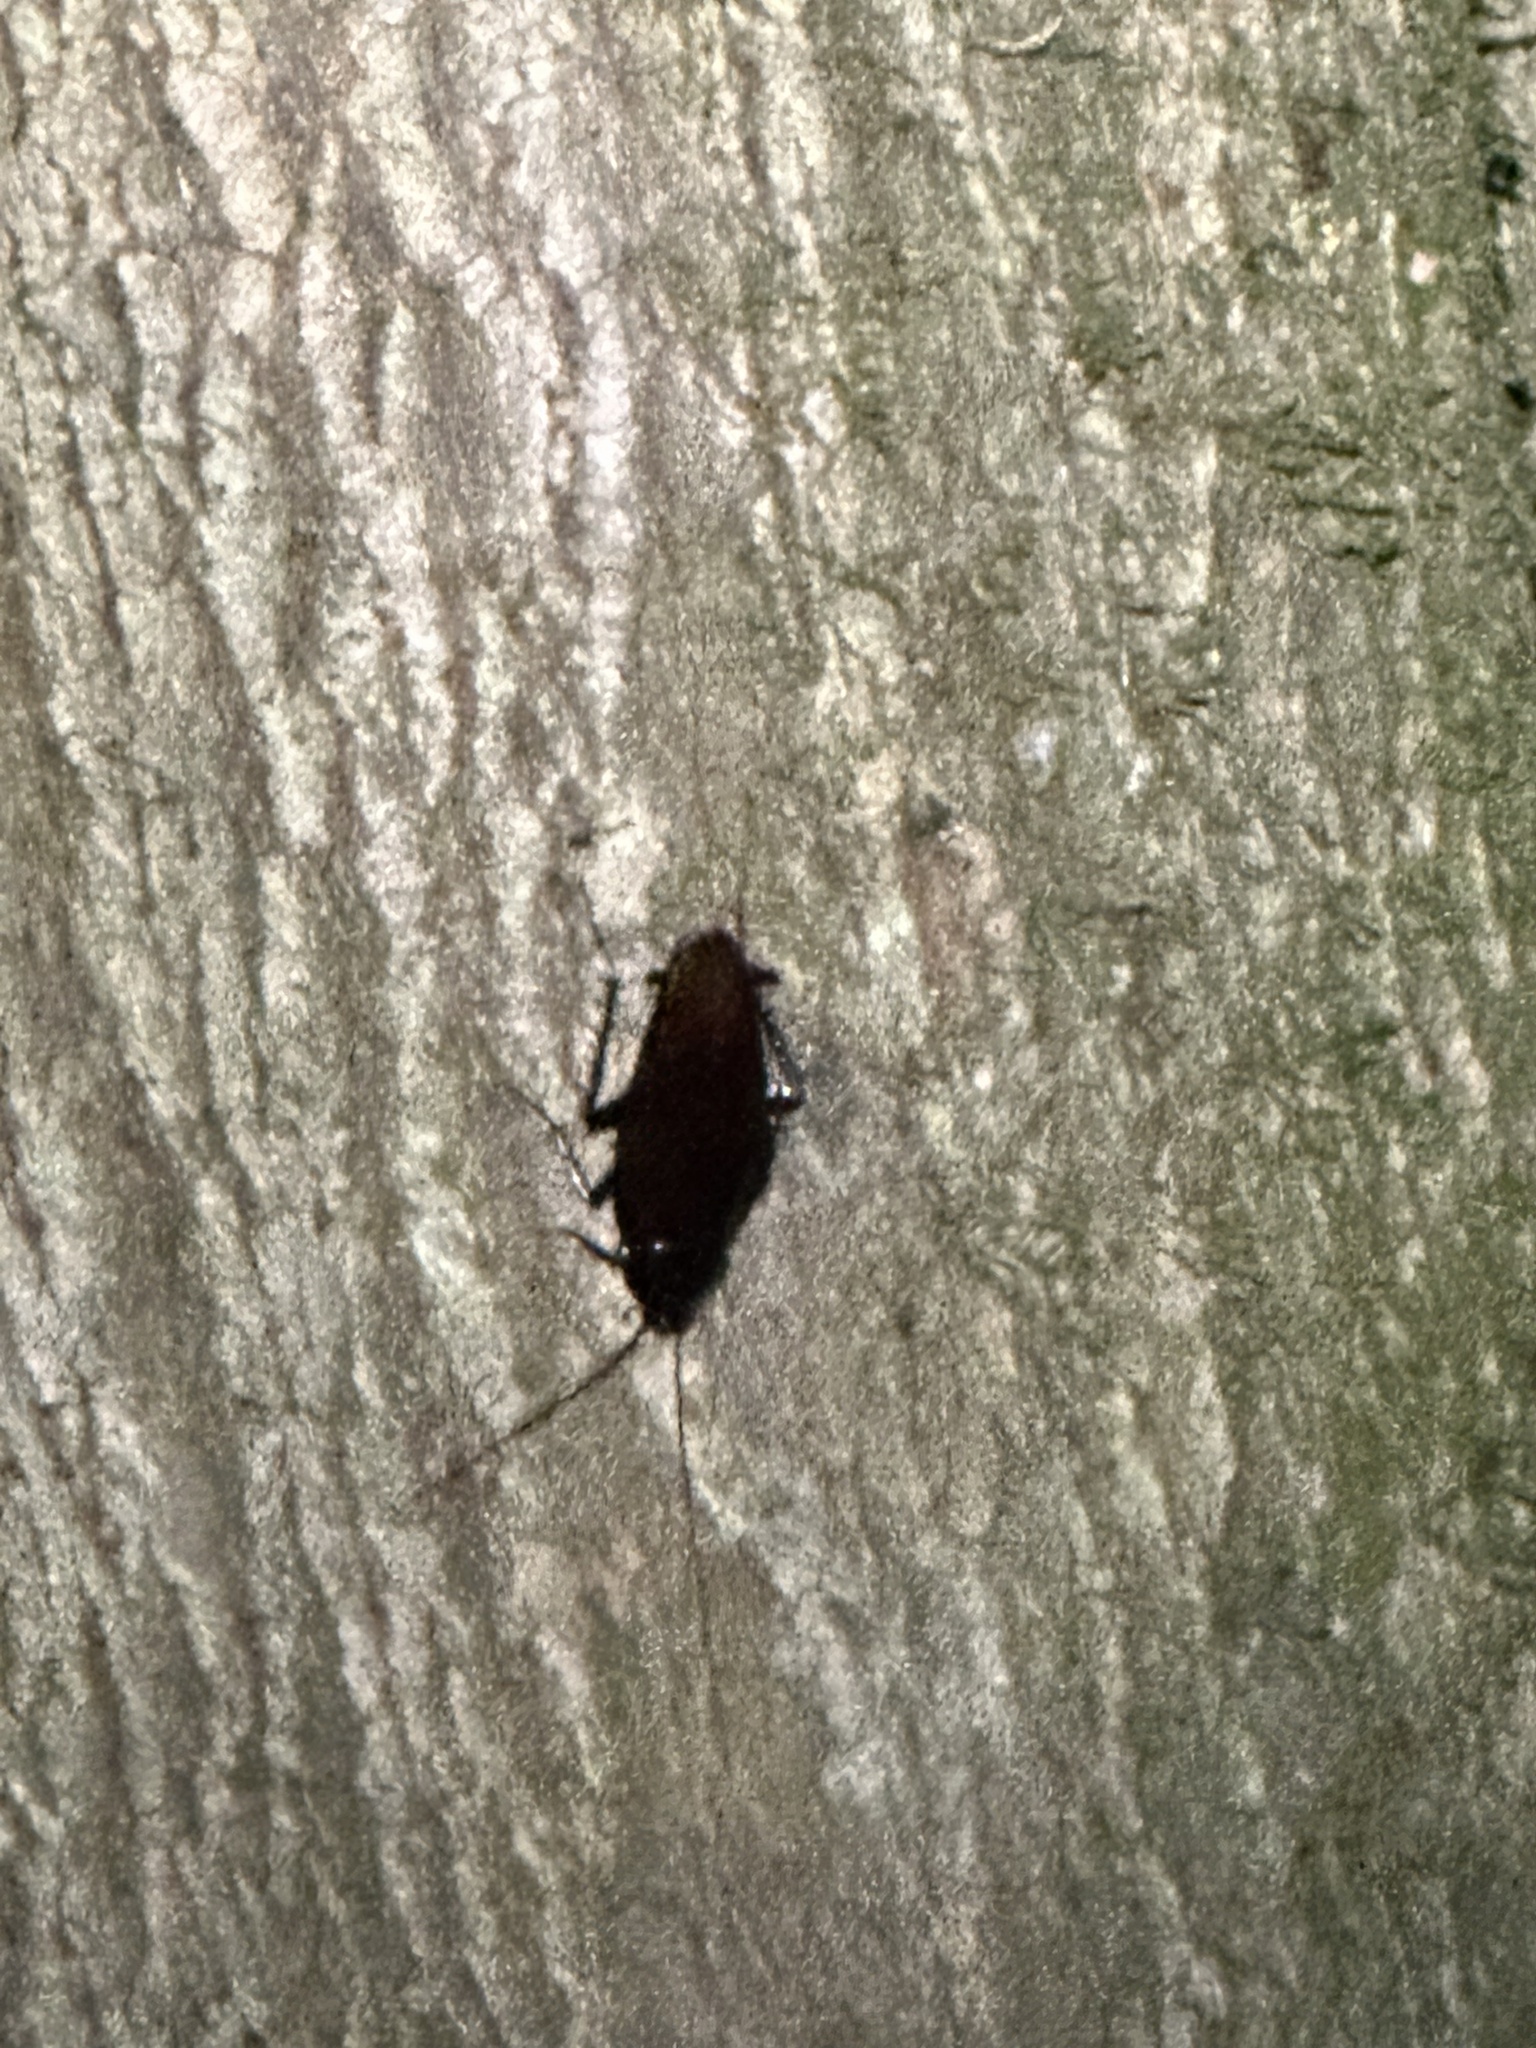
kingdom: Animalia
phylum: Arthropoda
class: Insecta
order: Blattodea
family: Blattidae
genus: Periplaneta
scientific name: Periplaneta fuliginosa
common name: Smokeybrown cockroad
